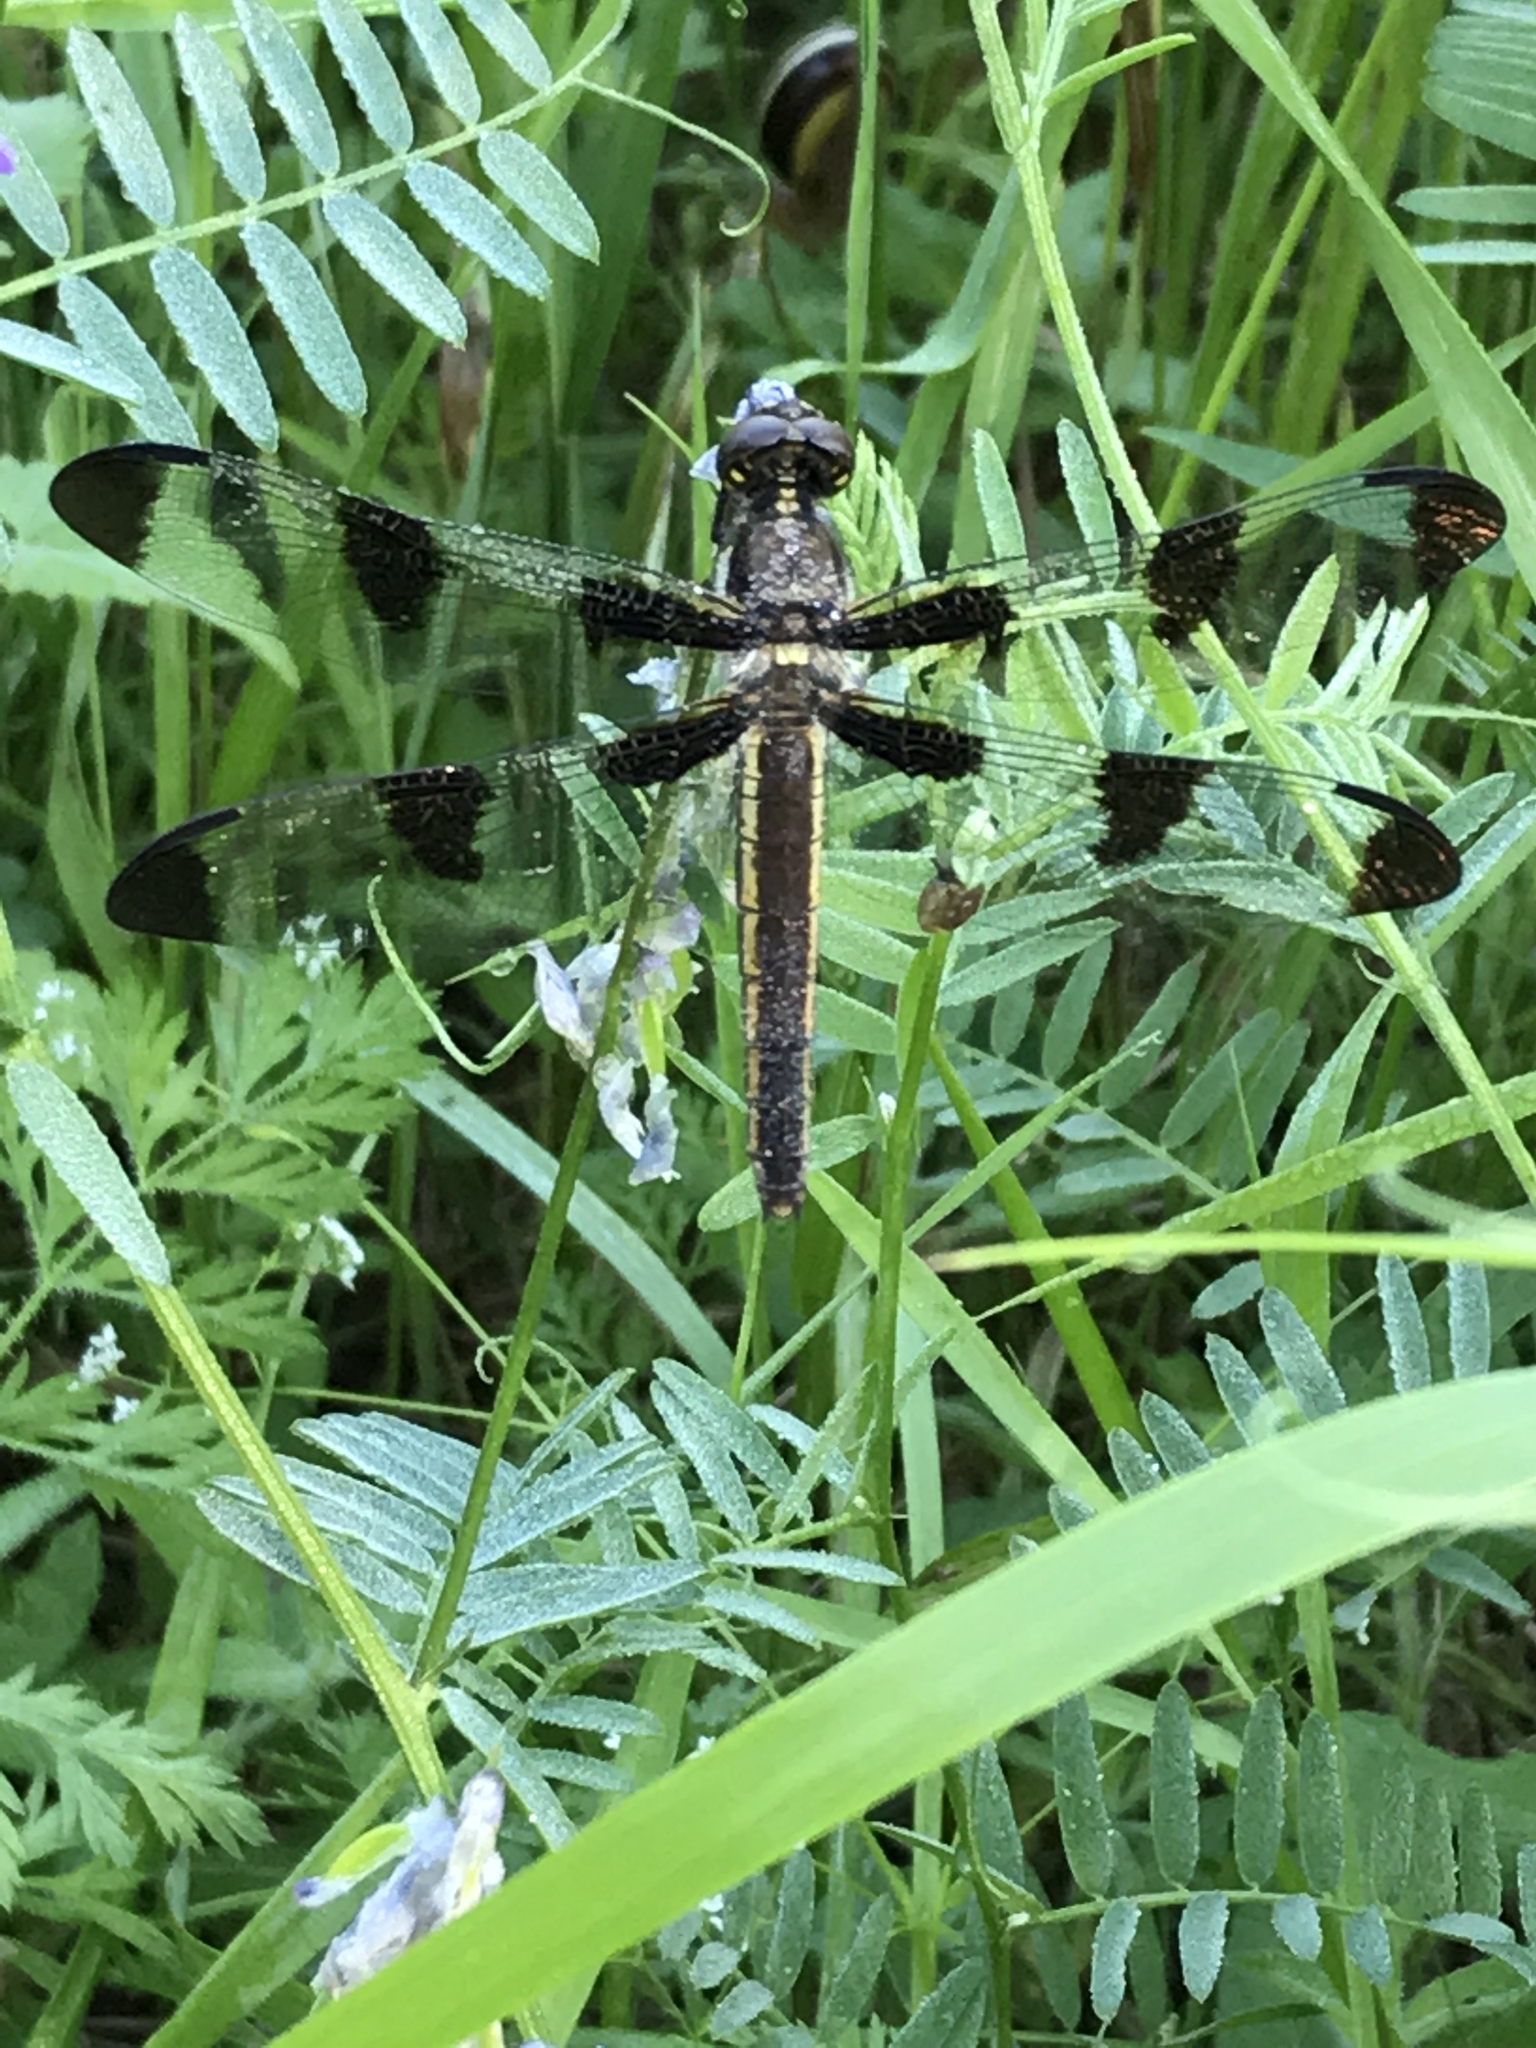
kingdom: Animalia
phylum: Arthropoda
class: Insecta
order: Odonata
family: Libellulidae
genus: Libellula
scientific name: Libellula pulchella
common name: Twelve-spotted skimmer
